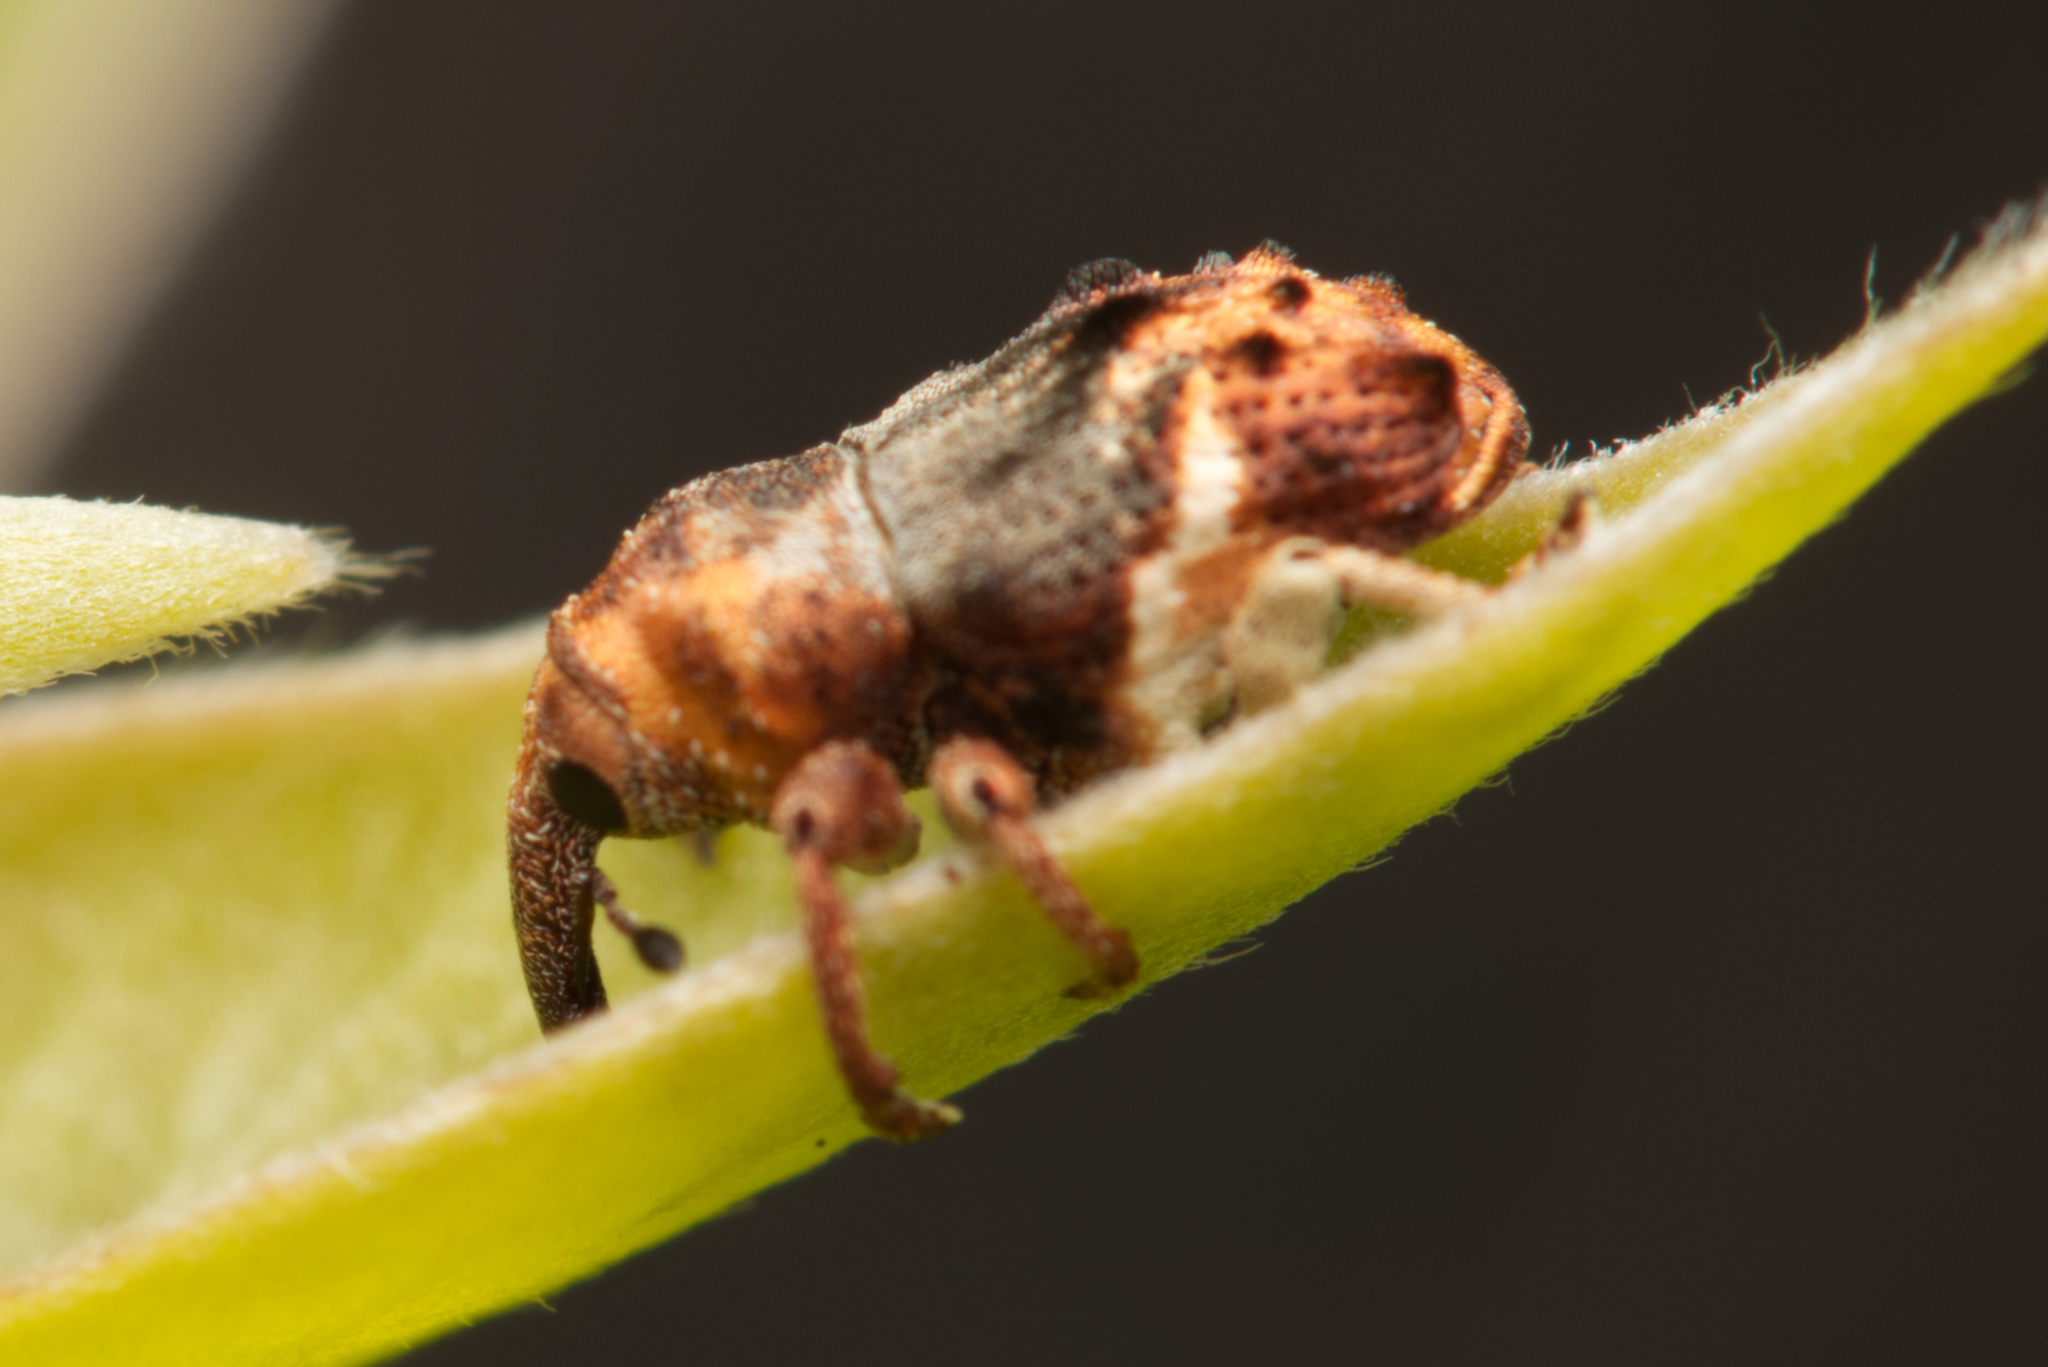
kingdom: Animalia
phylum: Arthropoda
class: Insecta
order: Coleoptera
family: Curculionidae
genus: Myllorhinus
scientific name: Myllorhinus
